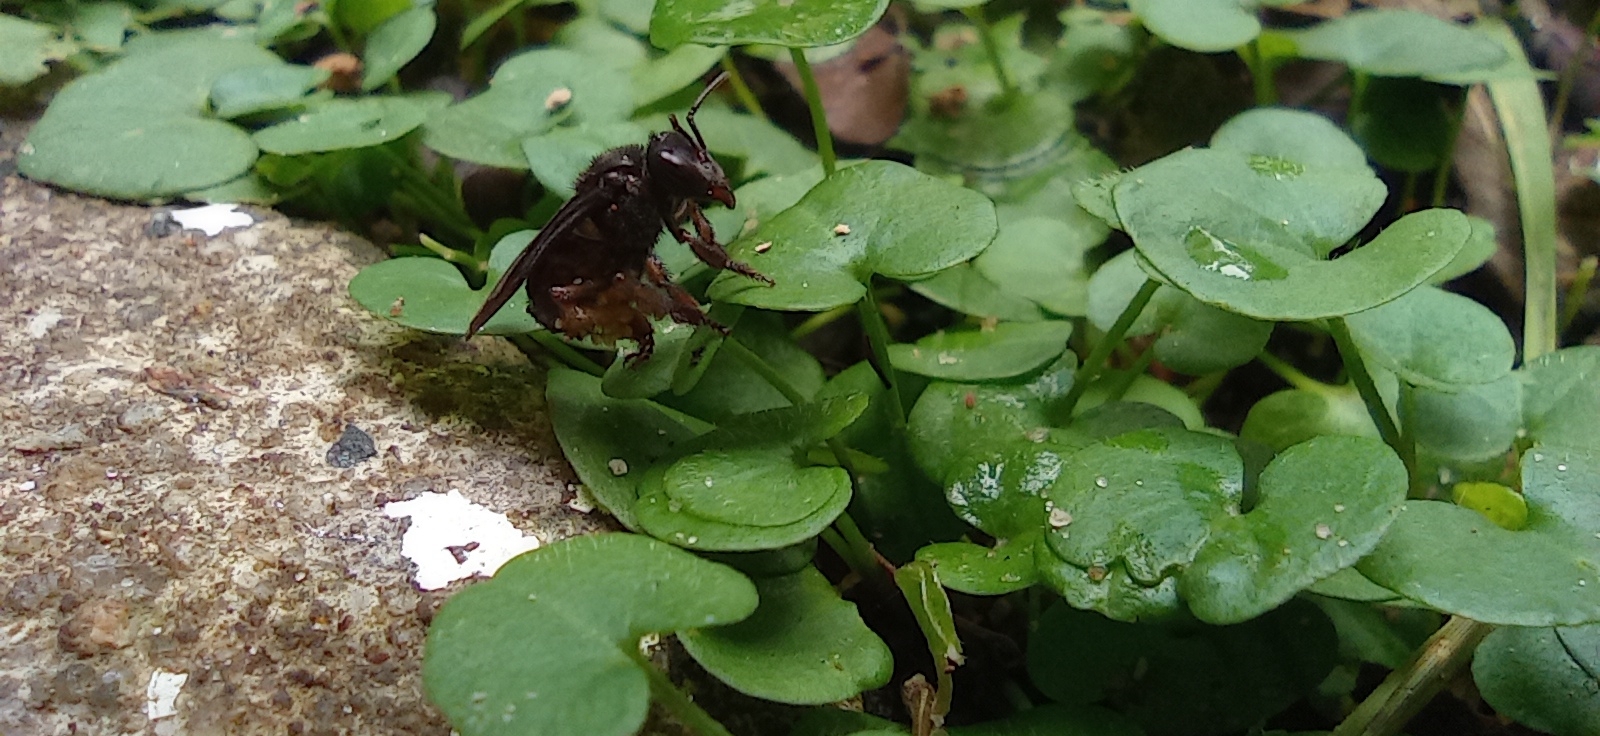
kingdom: Animalia
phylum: Arthropoda
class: Insecta
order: Hymenoptera
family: Apidae
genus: Trigona
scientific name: Trigona spinipes
